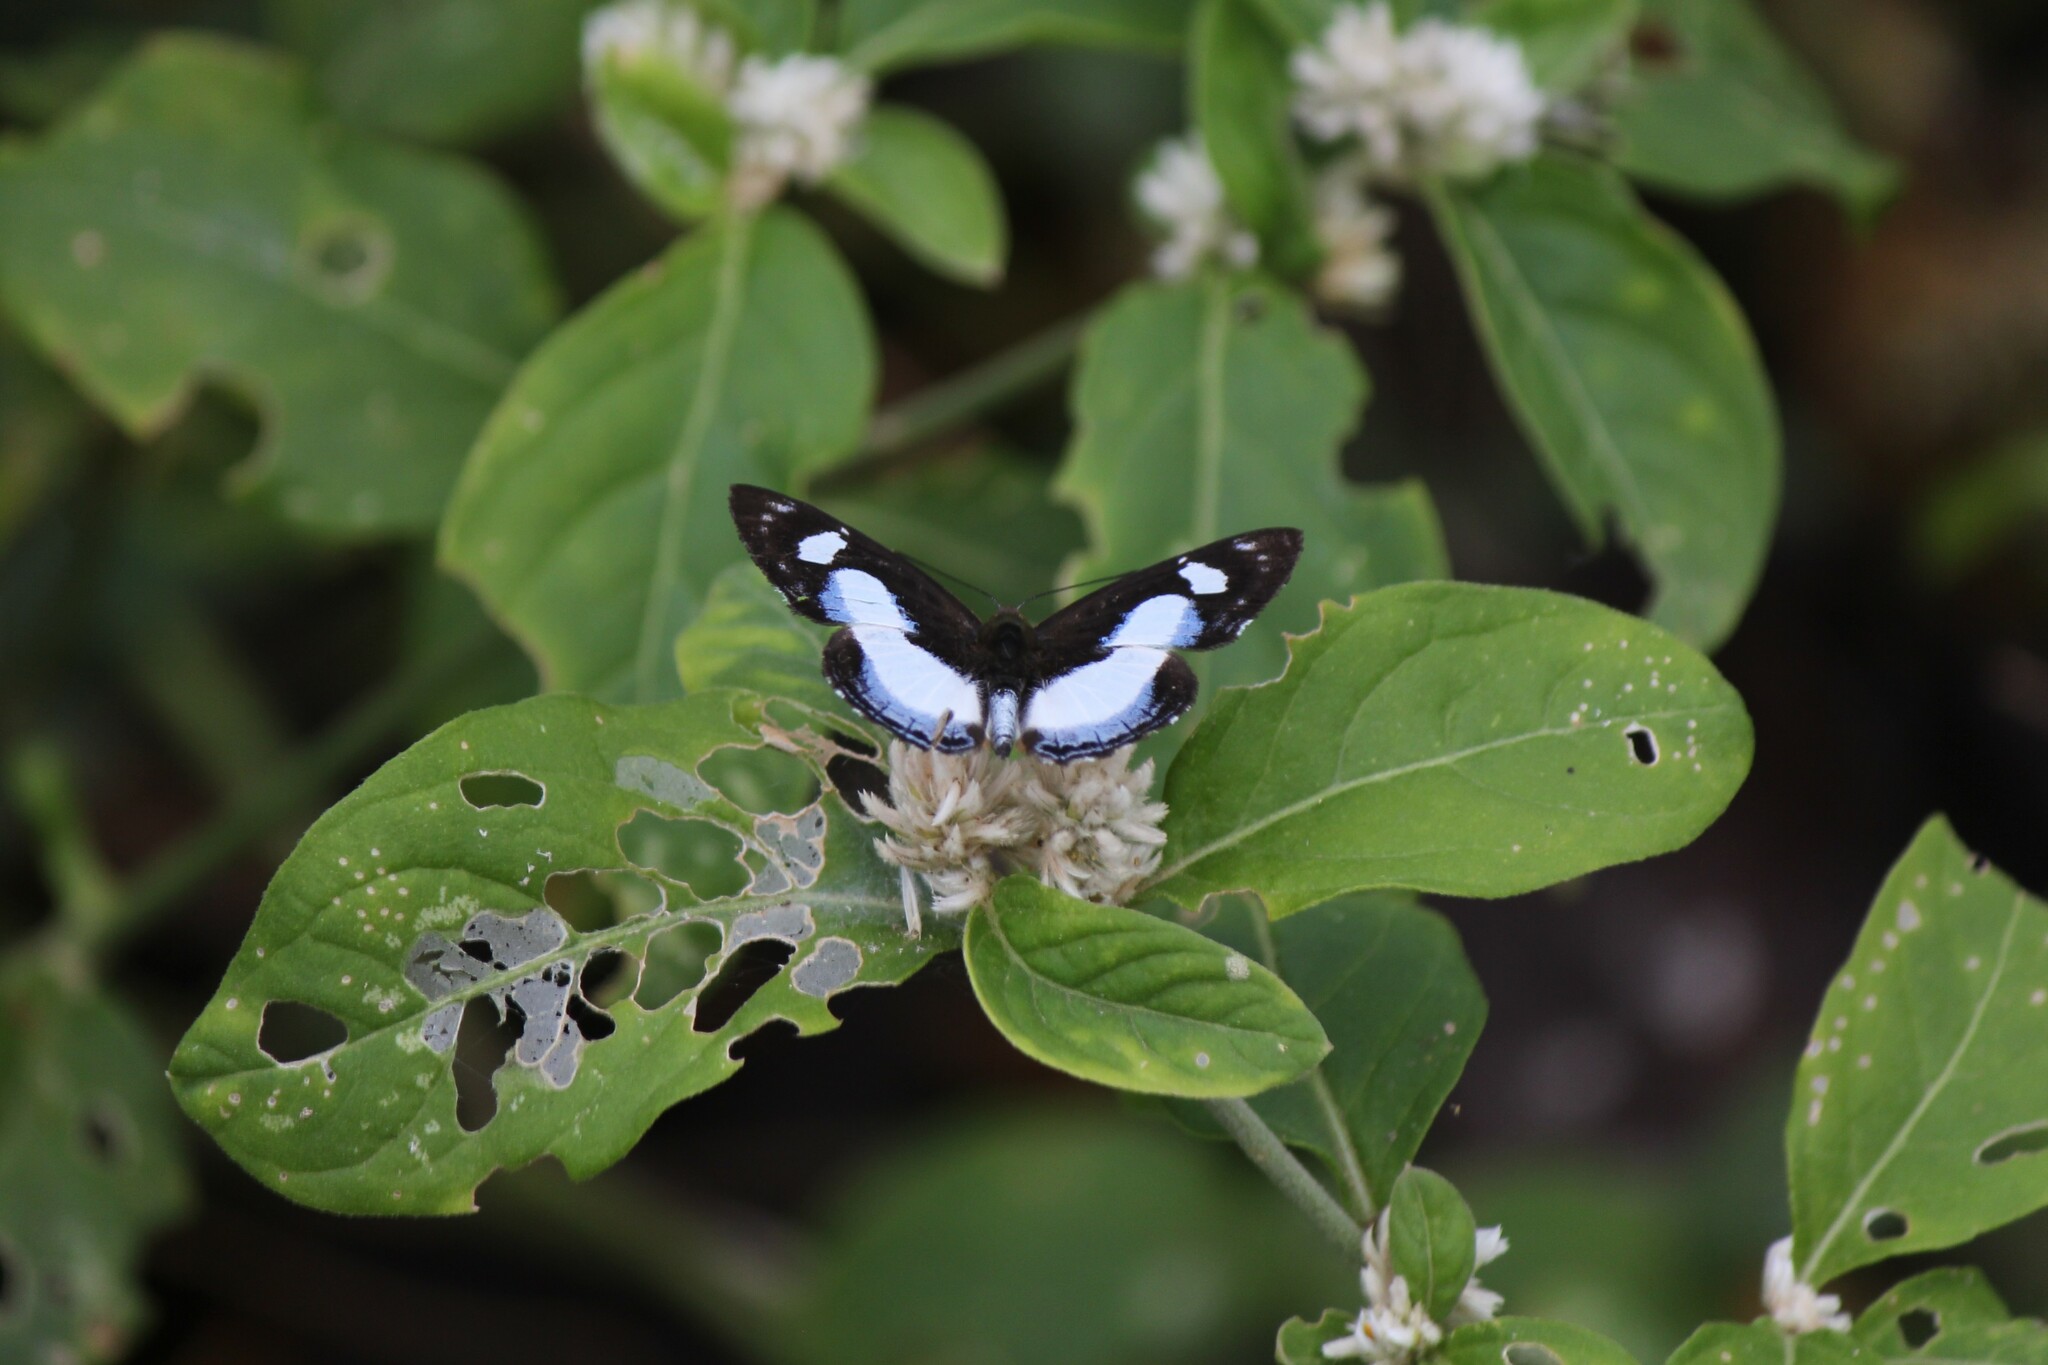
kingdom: Animalia
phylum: Arthropoda
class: Insecta
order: Lepidoptera
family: Riodinidae
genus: Thisbe
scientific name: Thisbe irenea
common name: Irenia metalmark
